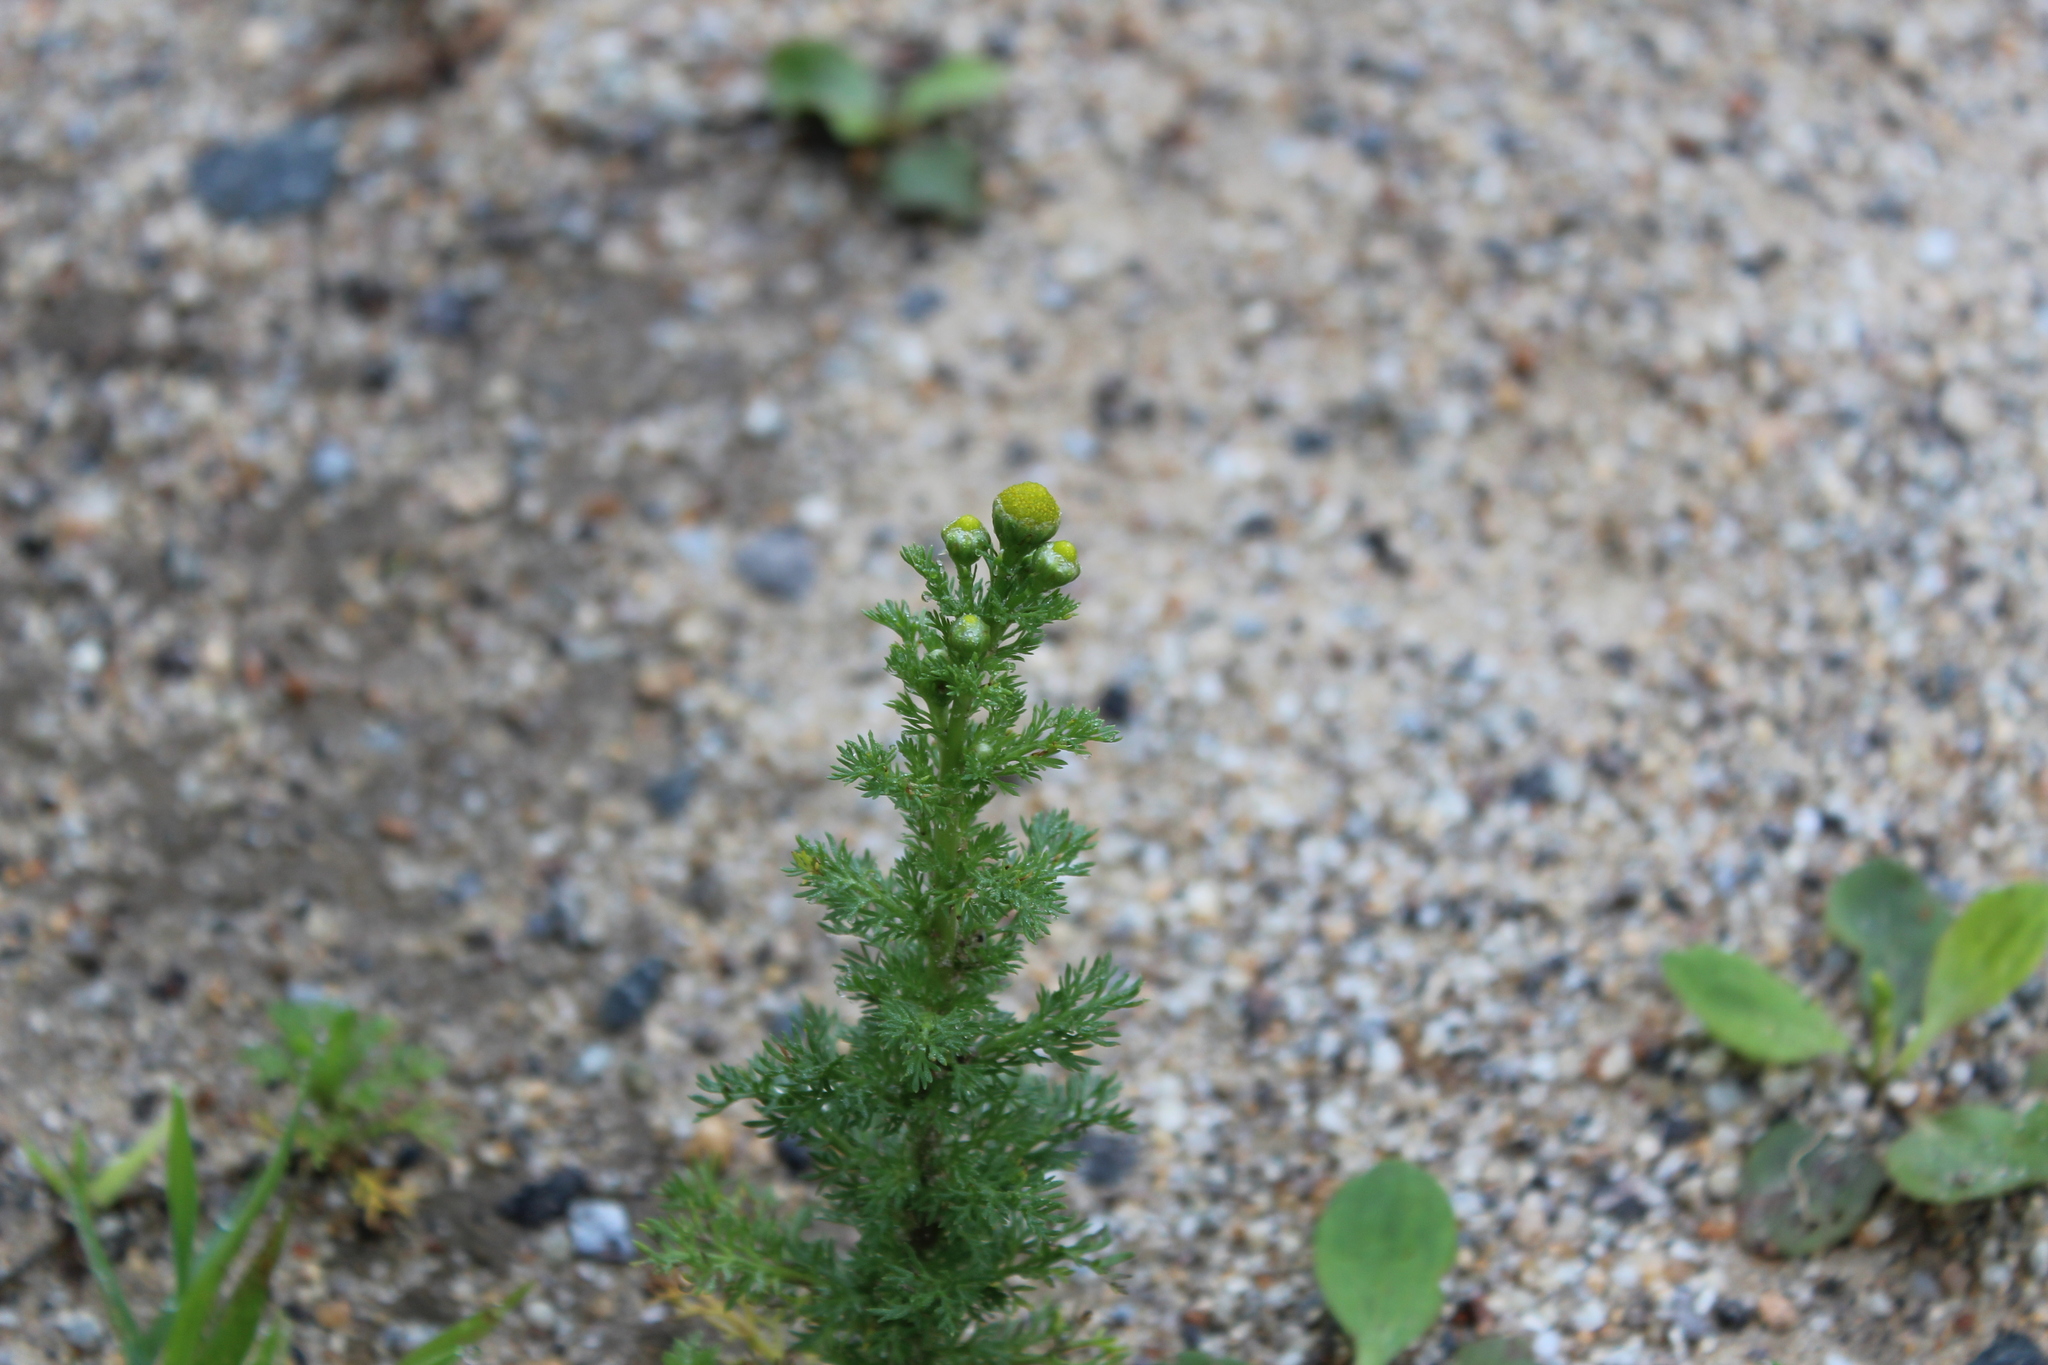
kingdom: Plantae
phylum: Tracheophyta
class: Magnoliopsida
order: Asterales
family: Asteraceae
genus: Matricaria
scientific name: Matricaria discoidea
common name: Disc mayweed
